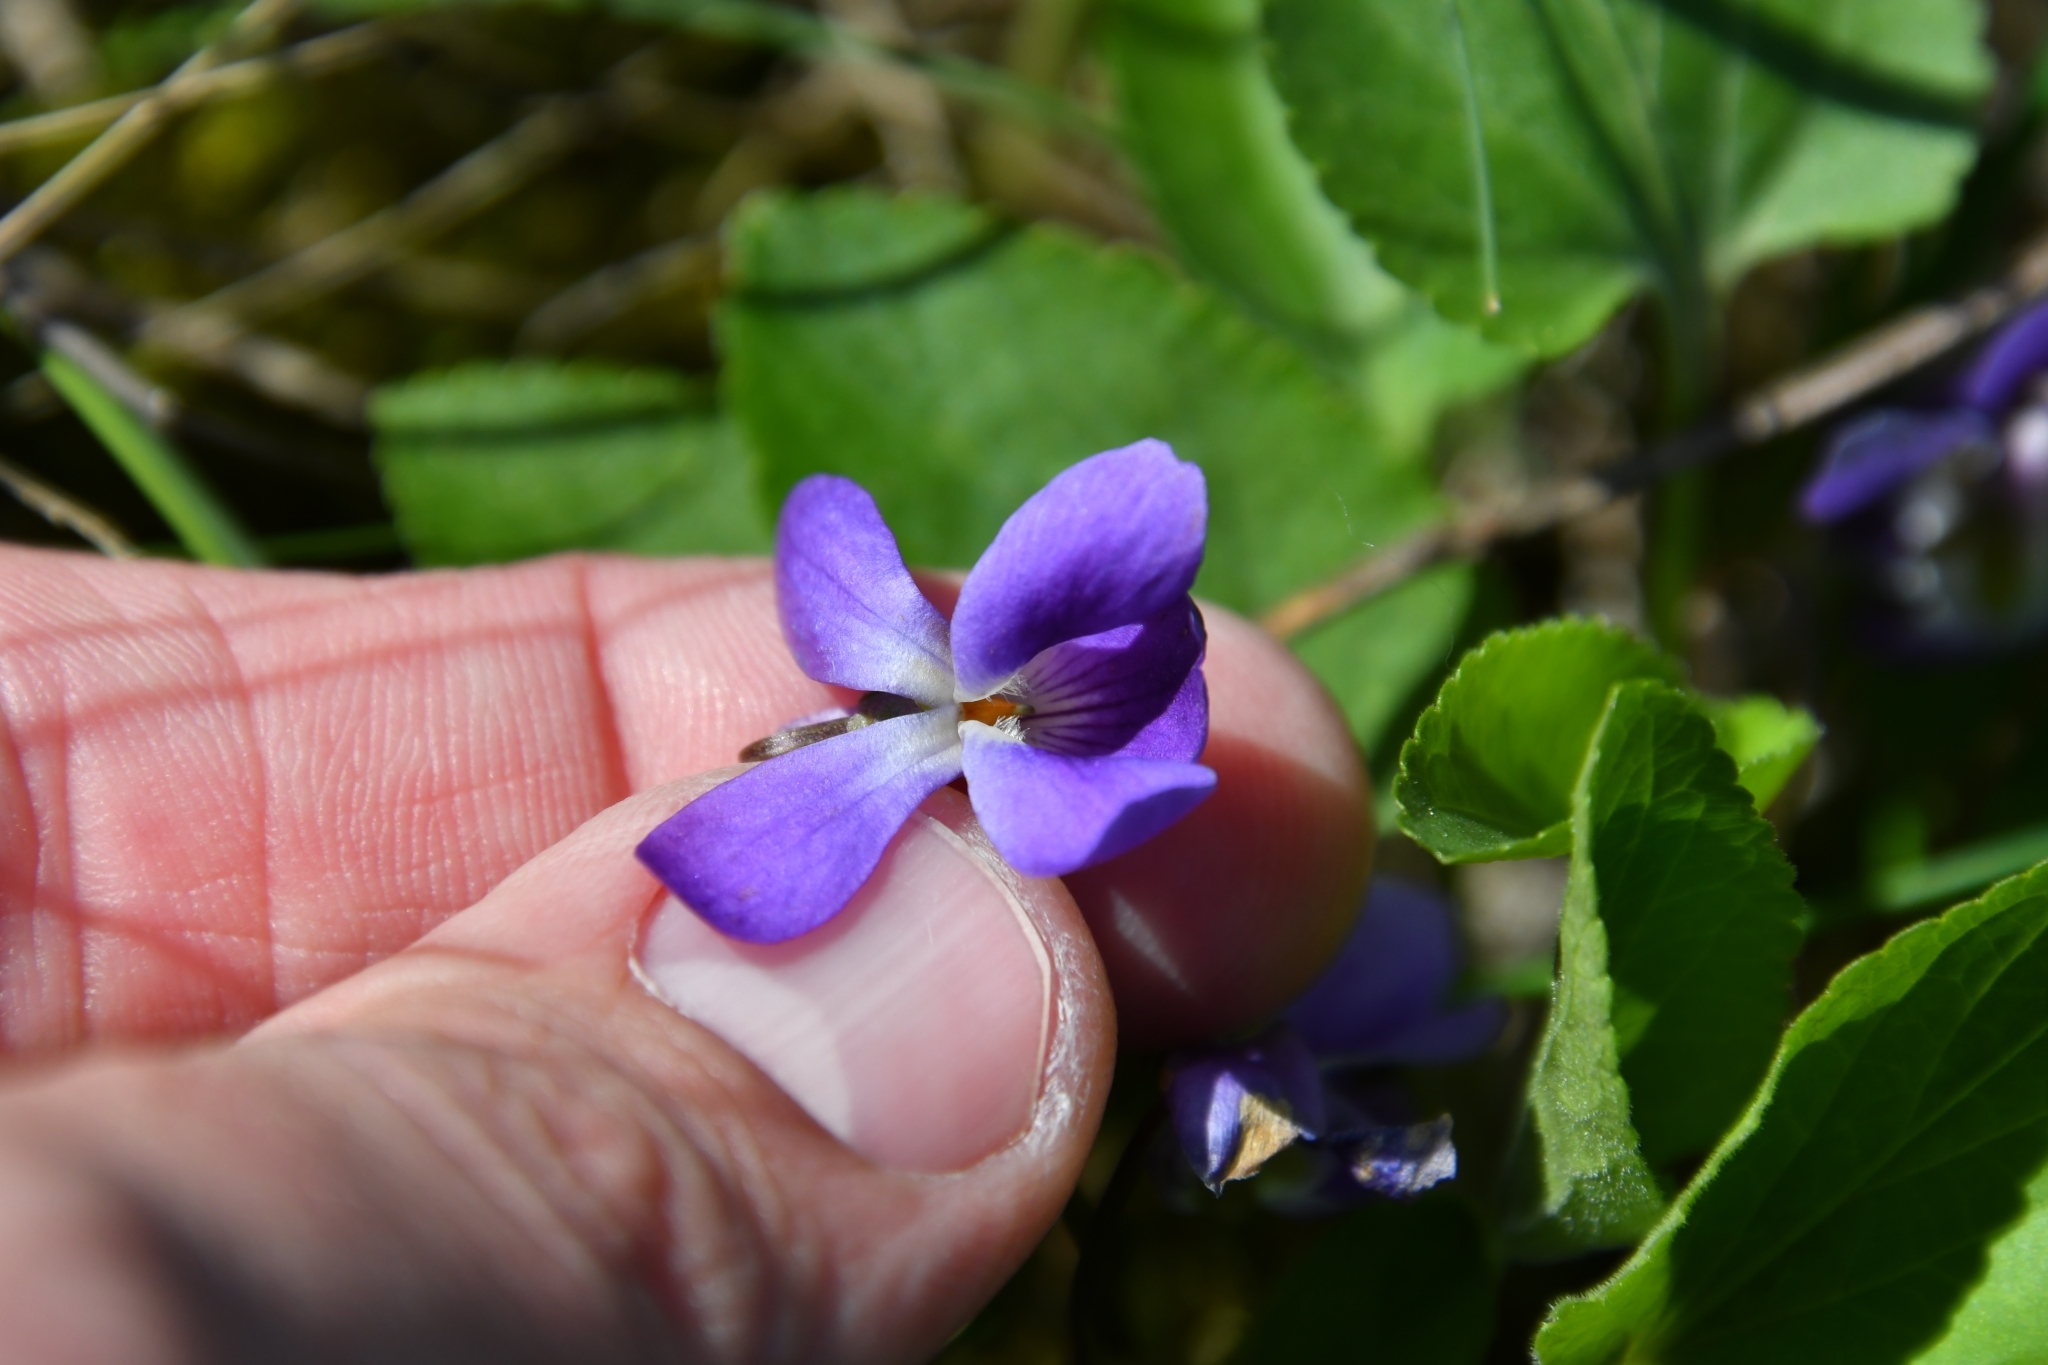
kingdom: Plantae
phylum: Tracheophyta
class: Magnoliopsida
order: Malpighiales
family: Violaceae
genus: Viola
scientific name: Viola ambigua
